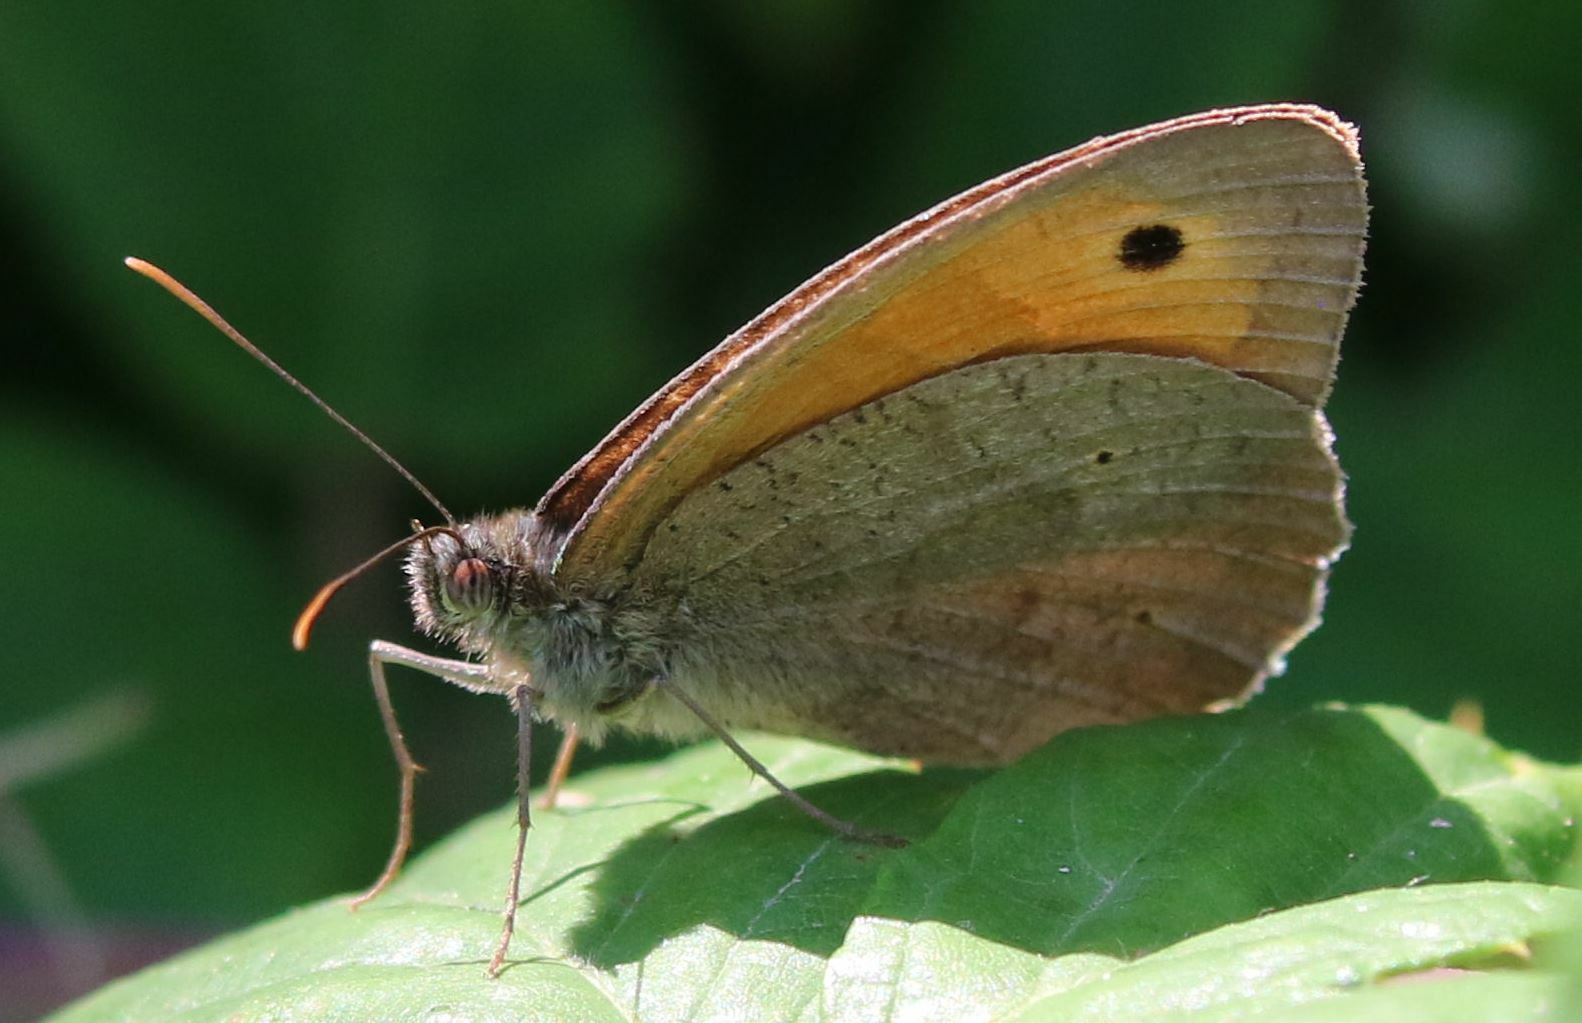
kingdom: Animalia
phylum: Arthropoda
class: Insecta
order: Lepidoptera
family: Nymphalidae
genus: Maniola
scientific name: Maniola jurtina
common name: Meadow brown
